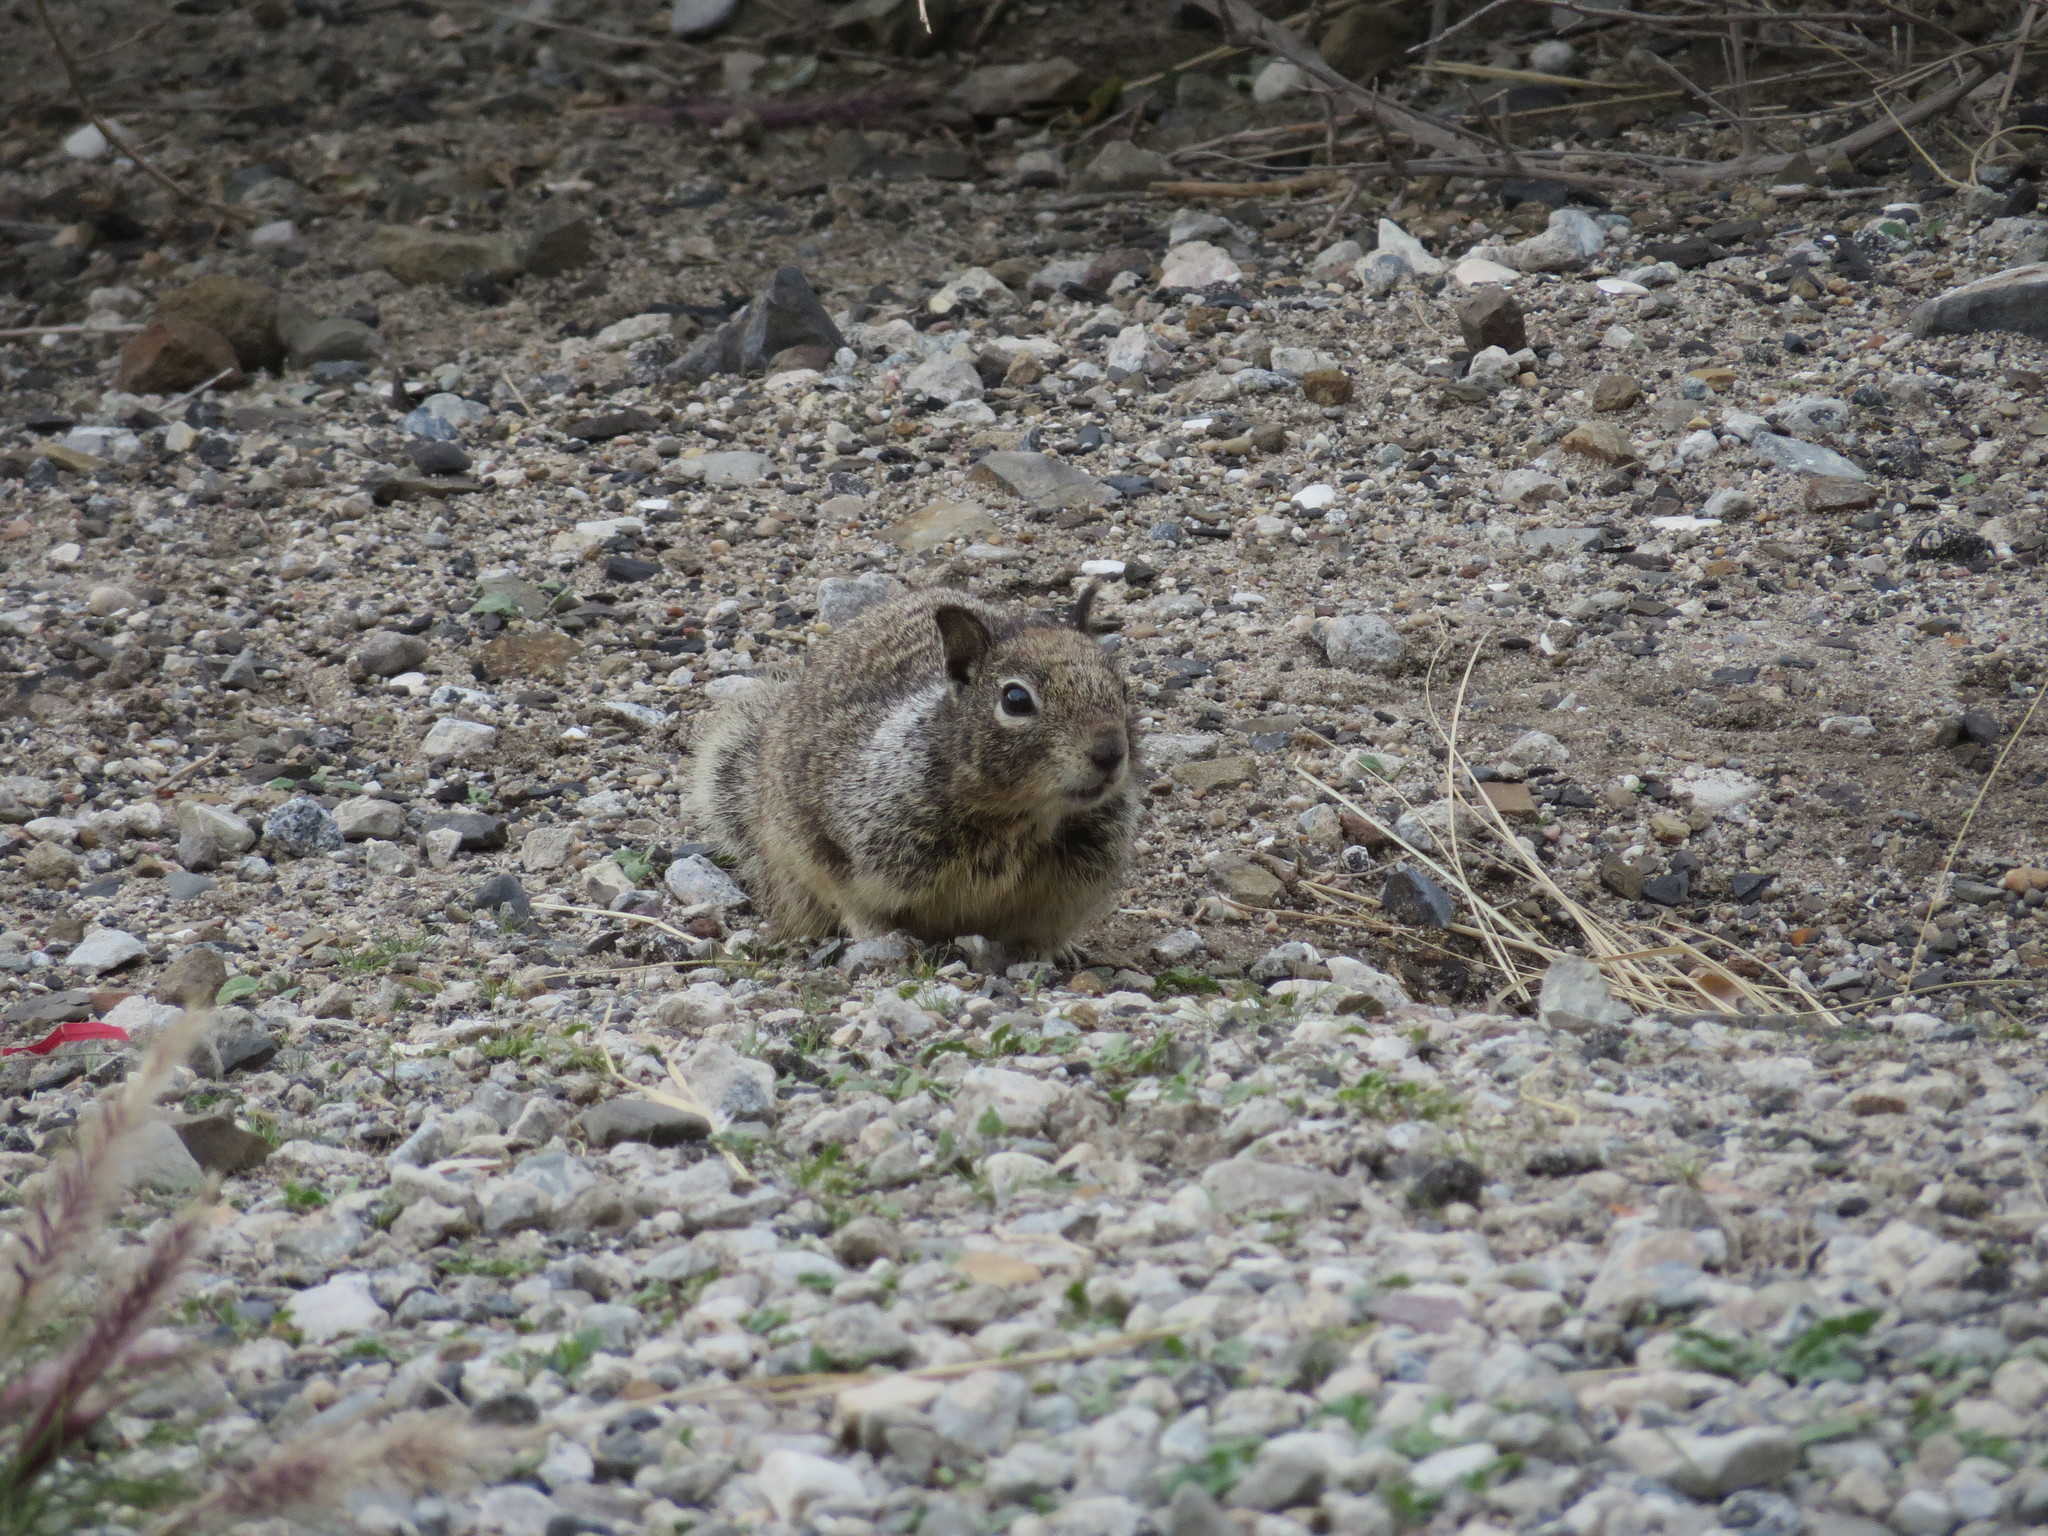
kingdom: Animalia
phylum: Chordata
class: Mammalia
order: Rodentia
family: Sciuridae
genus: Otospermophilus
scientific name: Otospermophilus beecheyi
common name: California ground squirrel
